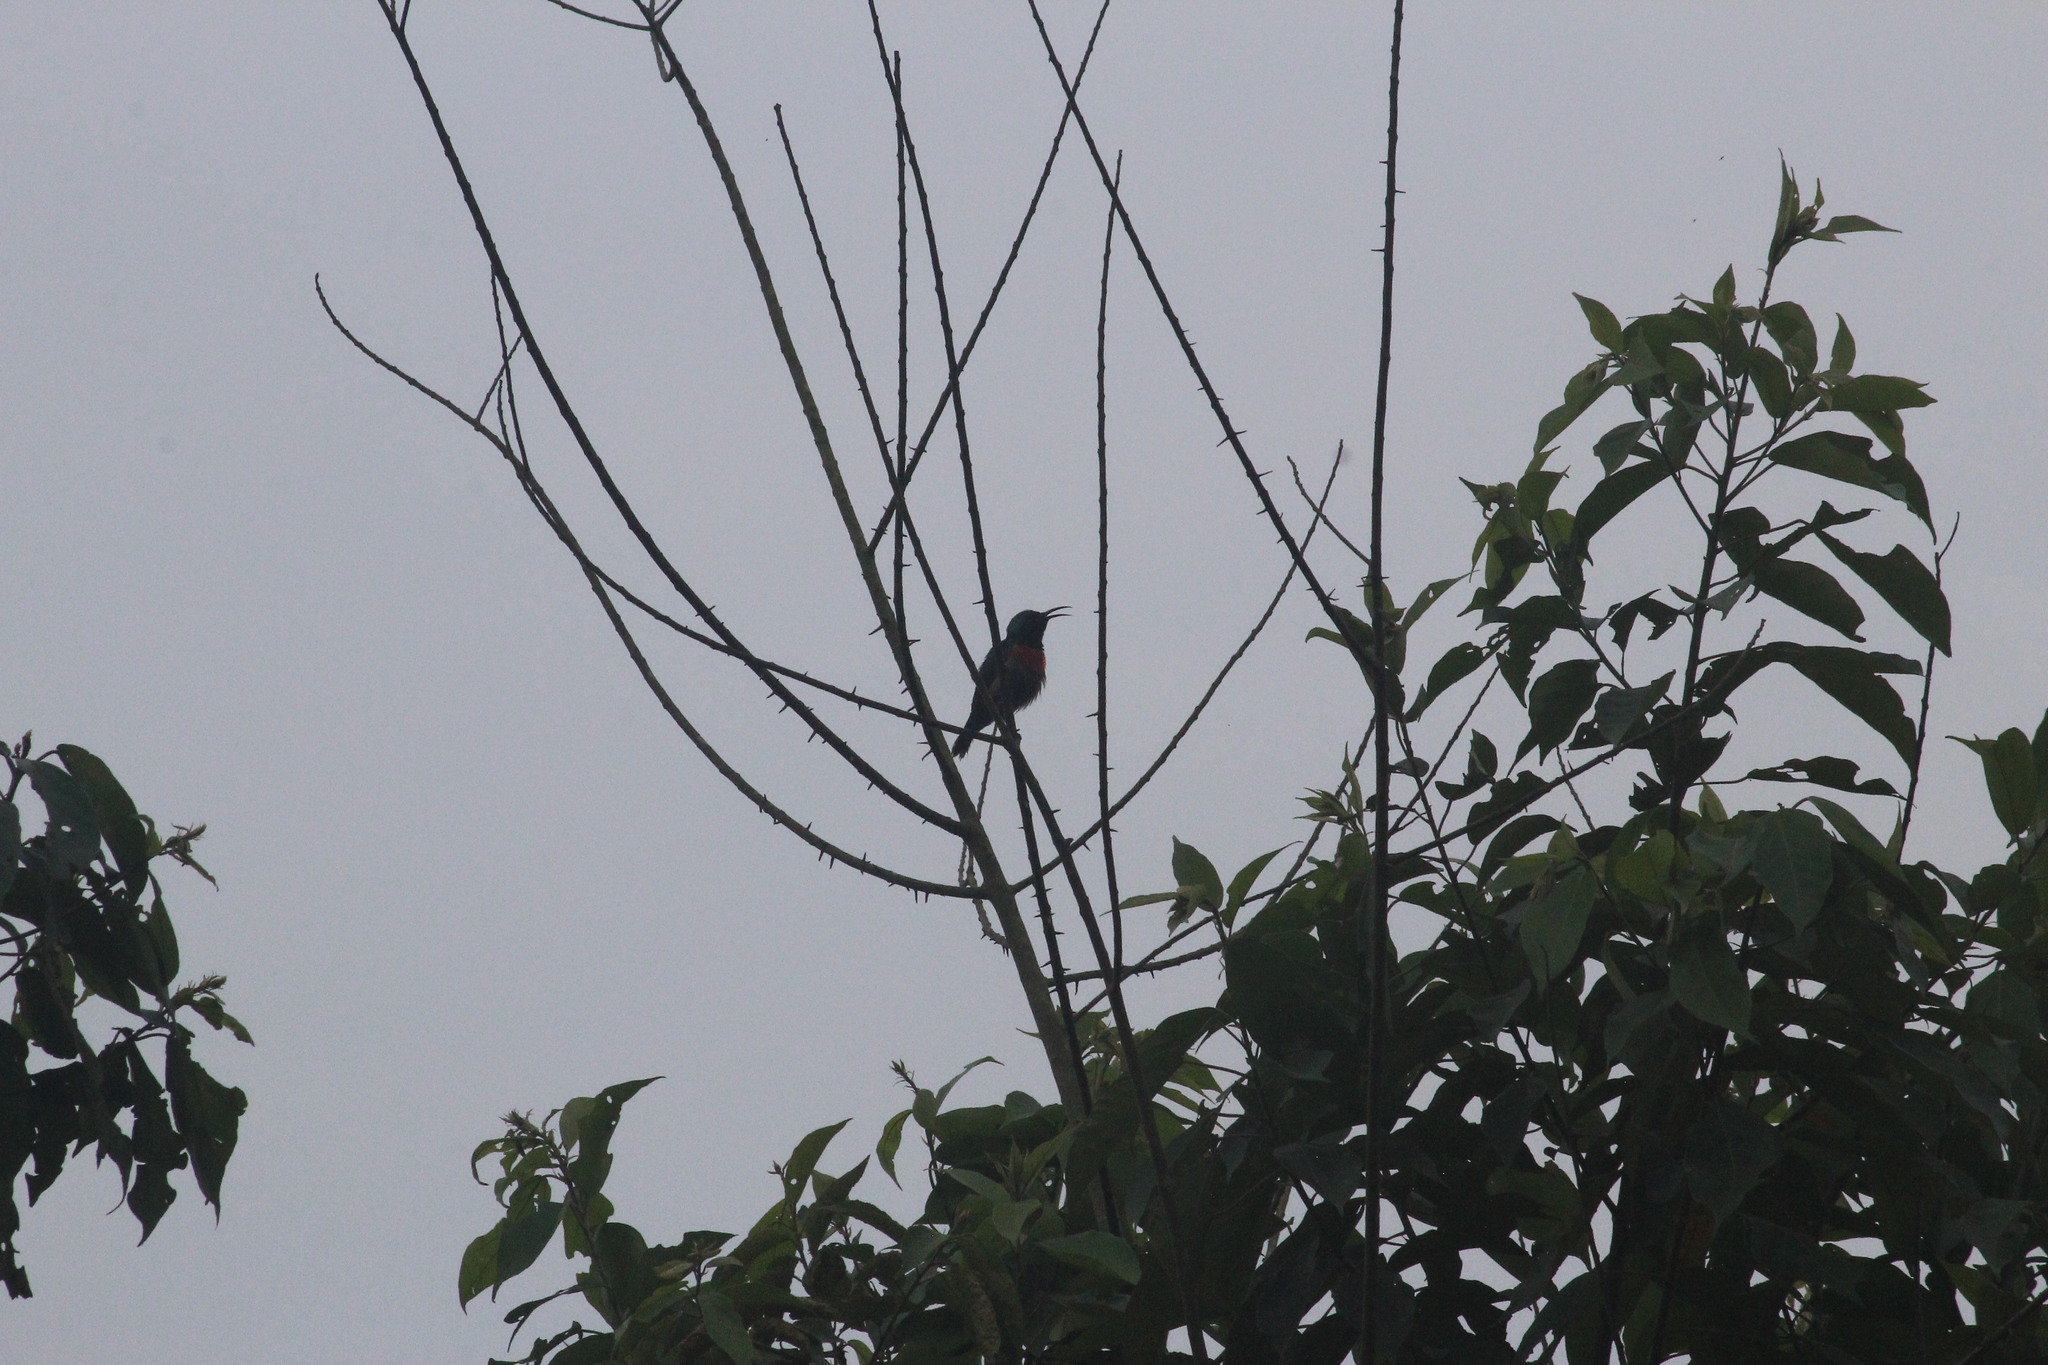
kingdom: Animalia
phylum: Chordata
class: Aves
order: Passeriformes
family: Nectariniidae
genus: Cinnyris
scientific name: Cinnyris chloropygius
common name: Olive-bellied sunbird
